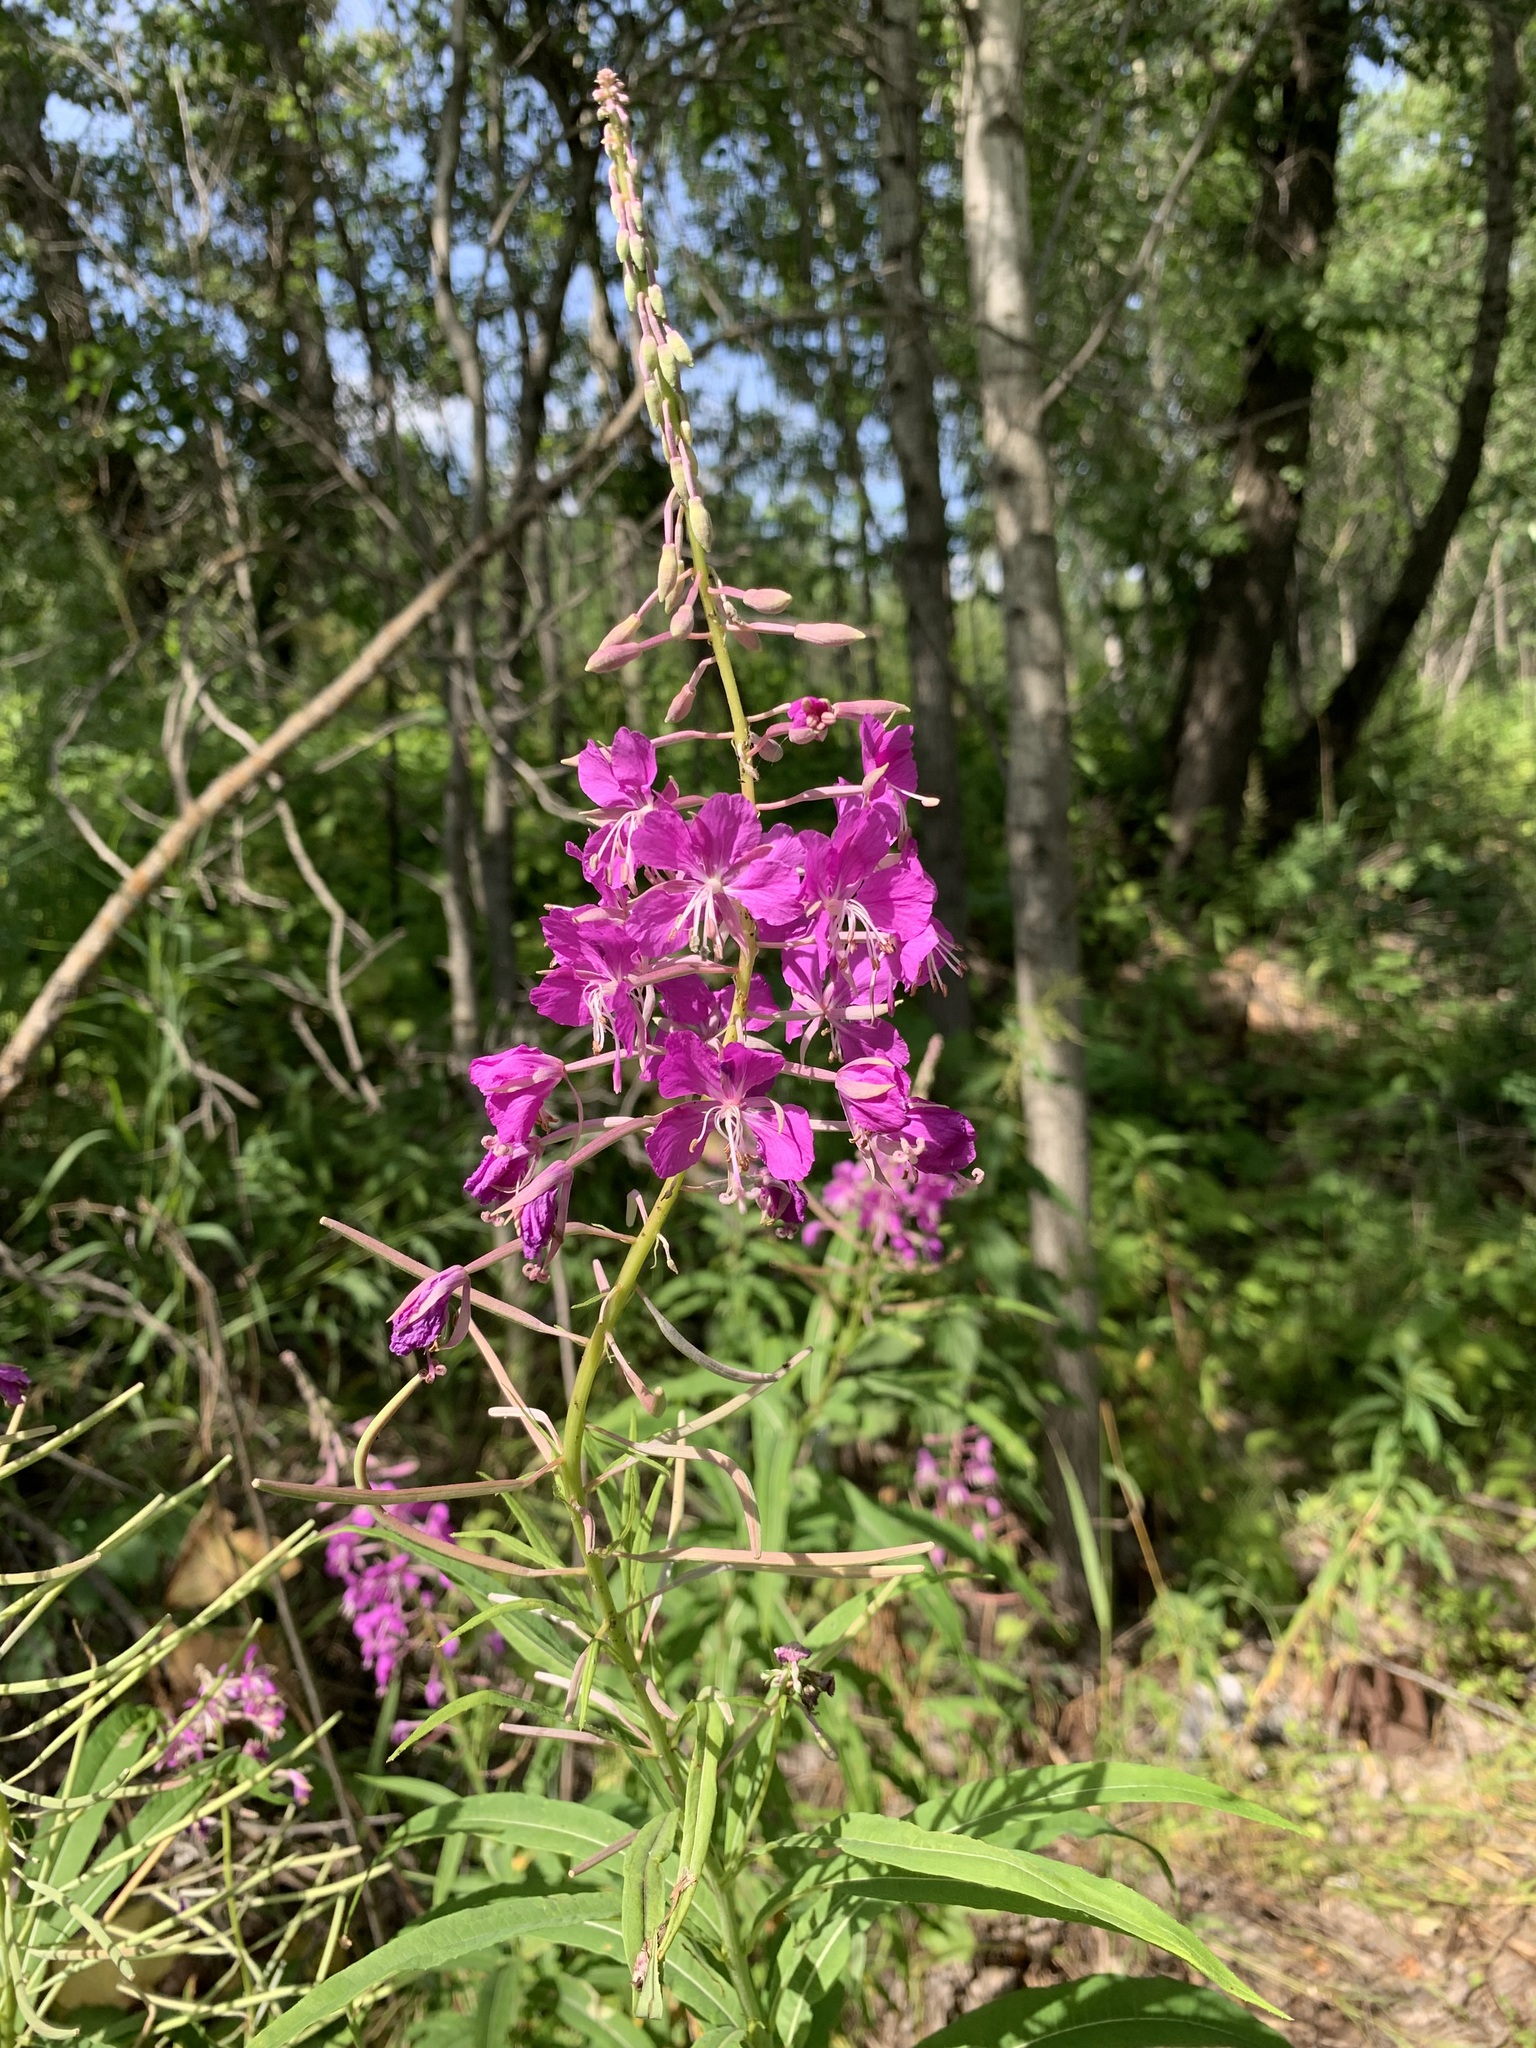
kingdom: Plantae
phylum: Tracheophyta
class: Magnoliopsida
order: Myrtales
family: Onagraceae
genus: Chamaenerion
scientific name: Chamaenerion angustifolium
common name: Fireweed
